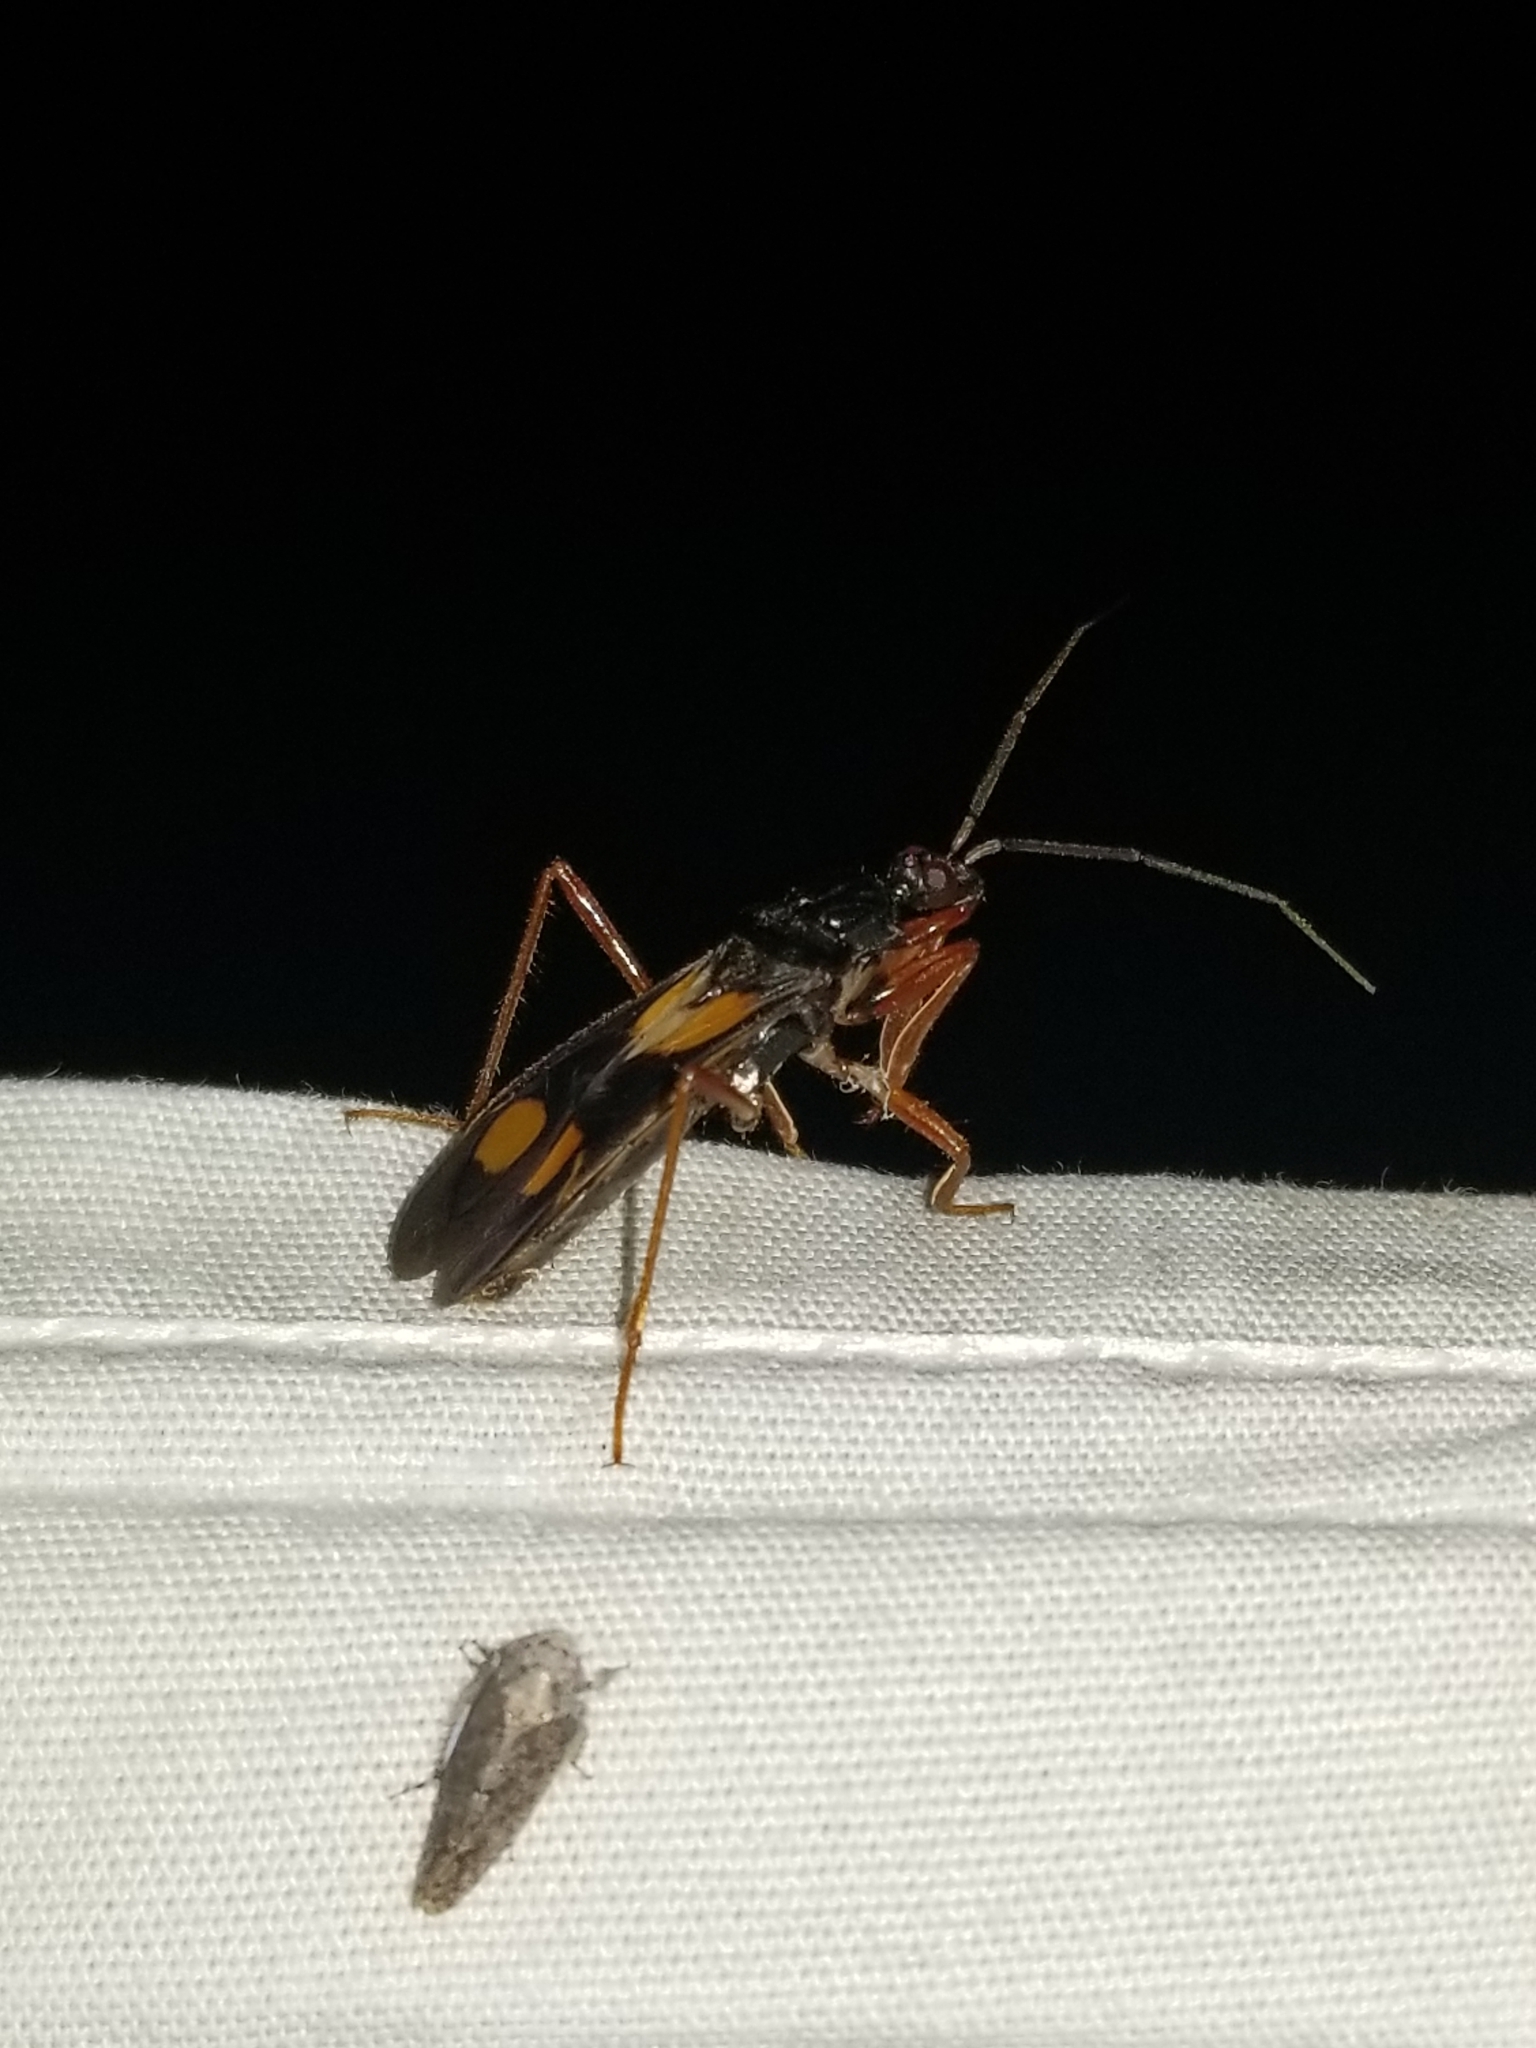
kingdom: Animalia
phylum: Arthropoda
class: Insecta
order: Hemiptera
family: Reduviidae
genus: Rasahus
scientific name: Rasahus hamatus
